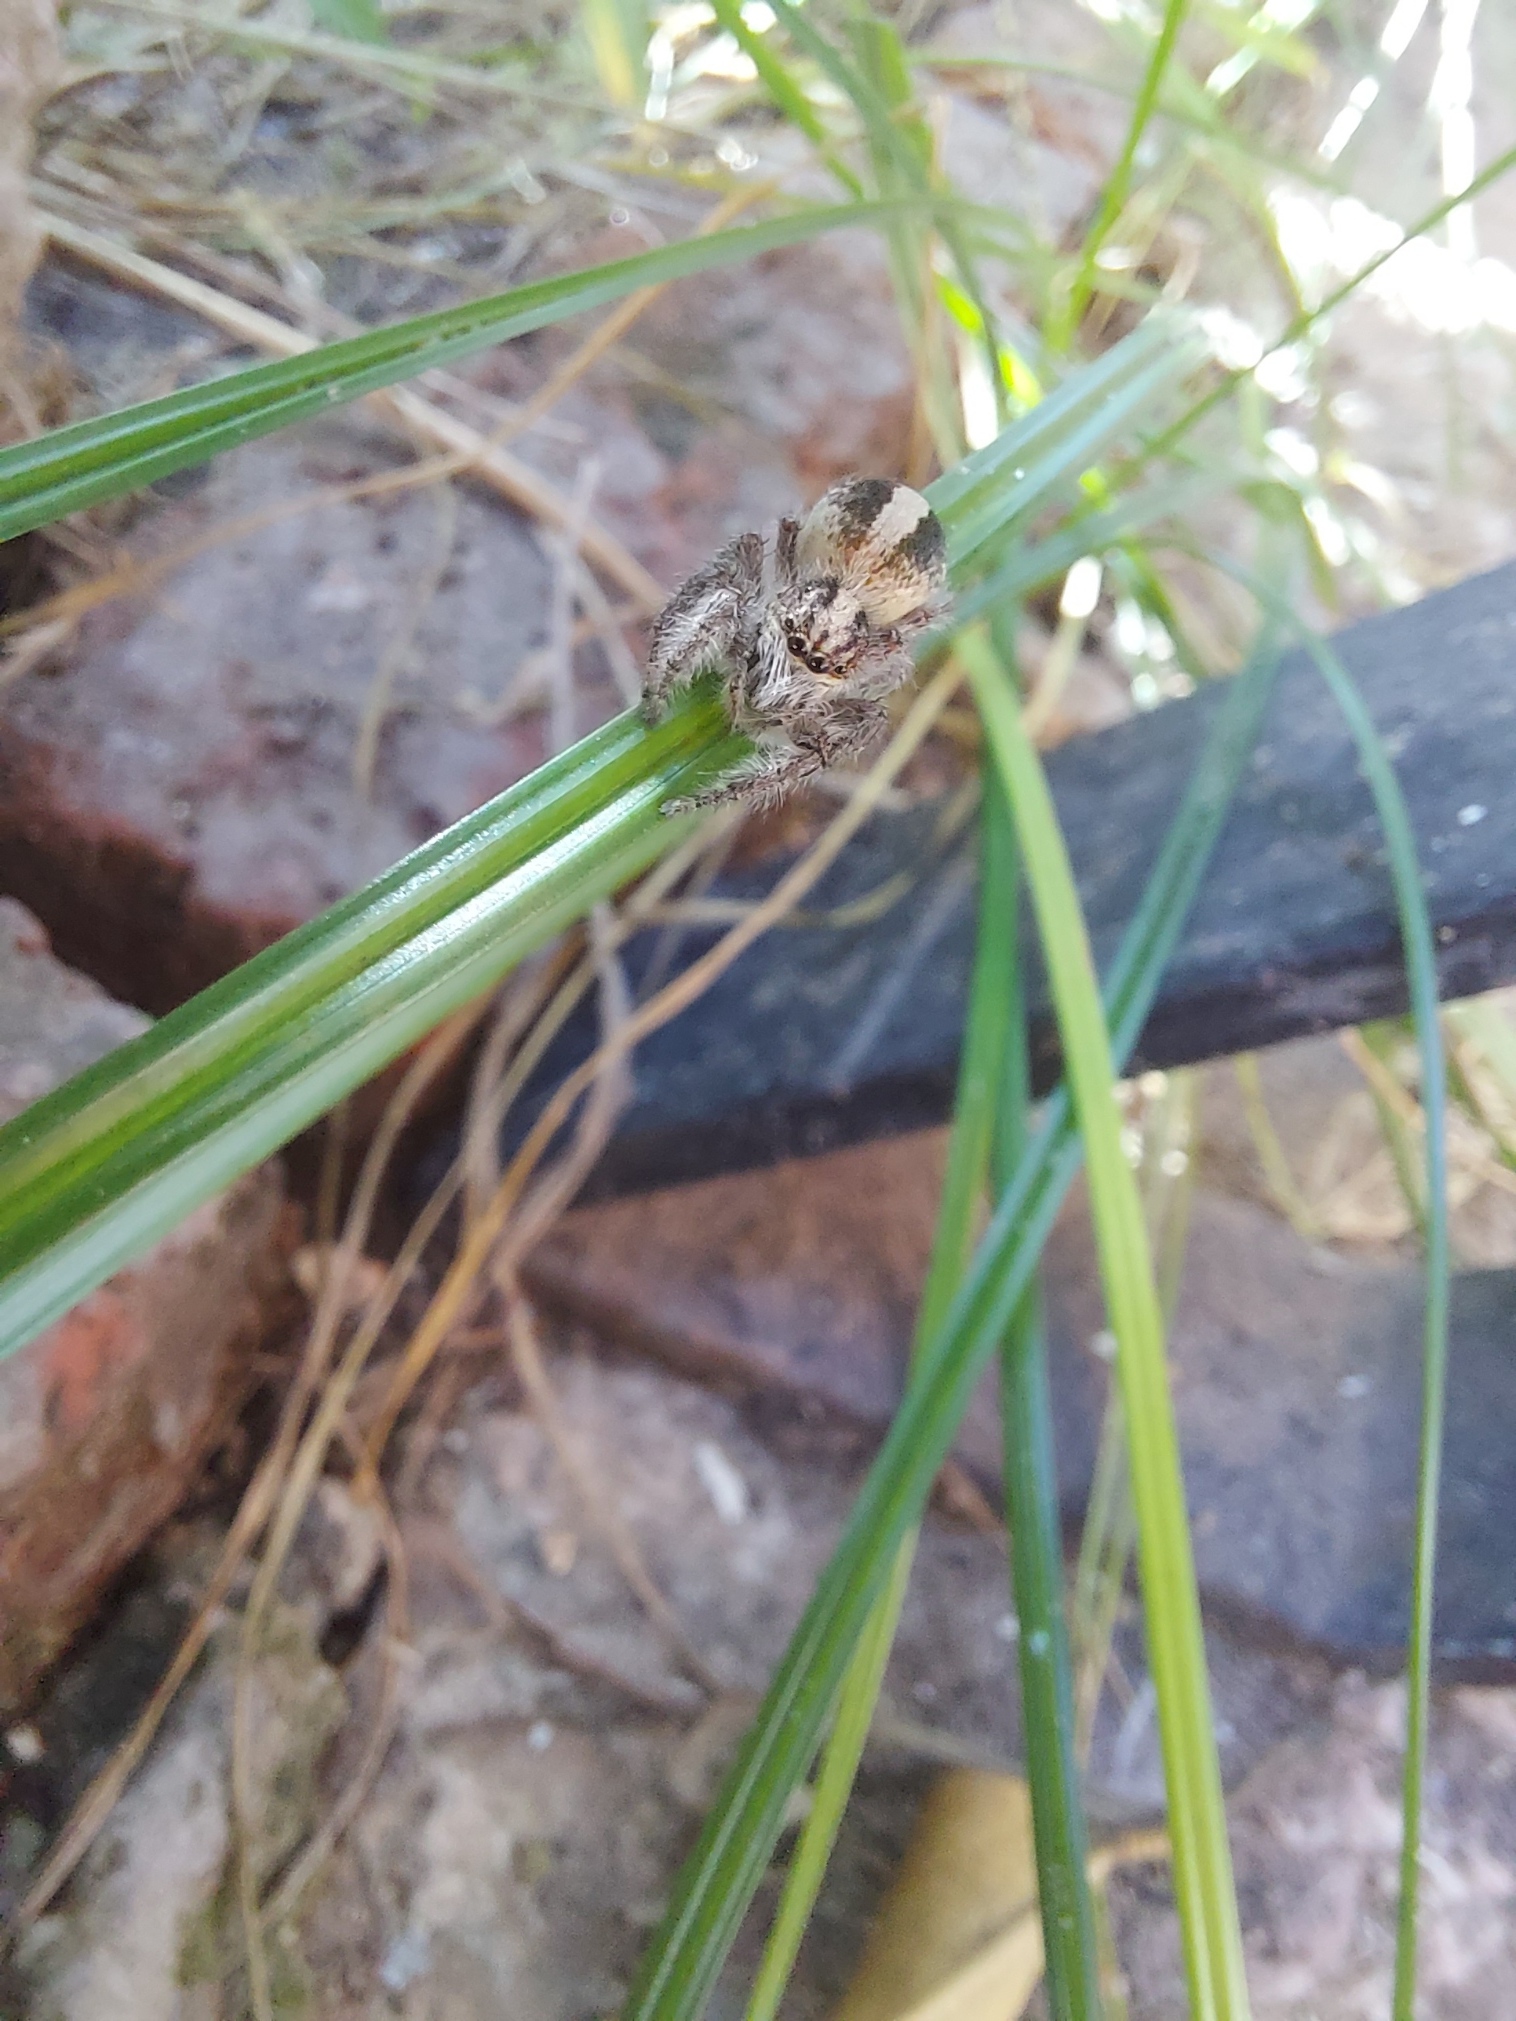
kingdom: Animalia
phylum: Arthropoda
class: Arachnida
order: Araneae
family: Salticidae
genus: Megafreya
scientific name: Megafreya sutrix
